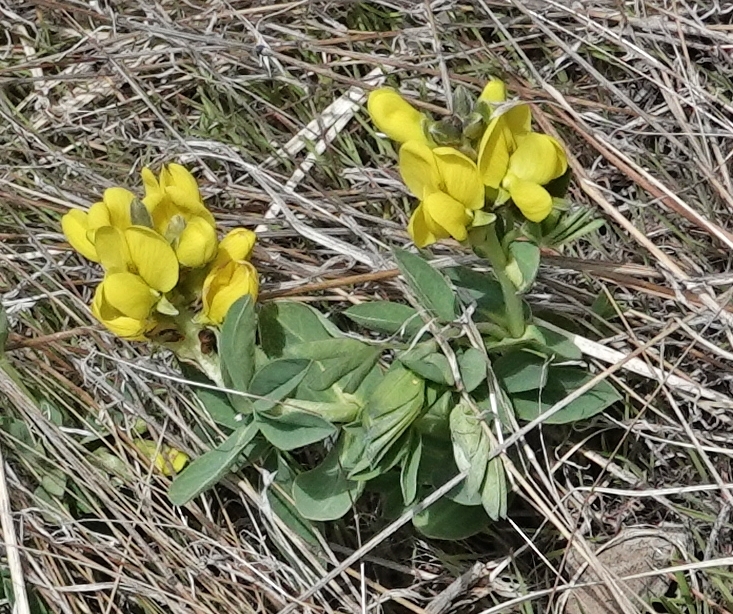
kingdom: Plantae
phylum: Tracheophyta
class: Magnoliopsida
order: Fabales
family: Fabaceae
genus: Thermopsis
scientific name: Thermopsis rhombifolia
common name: Circle-pod-pea
